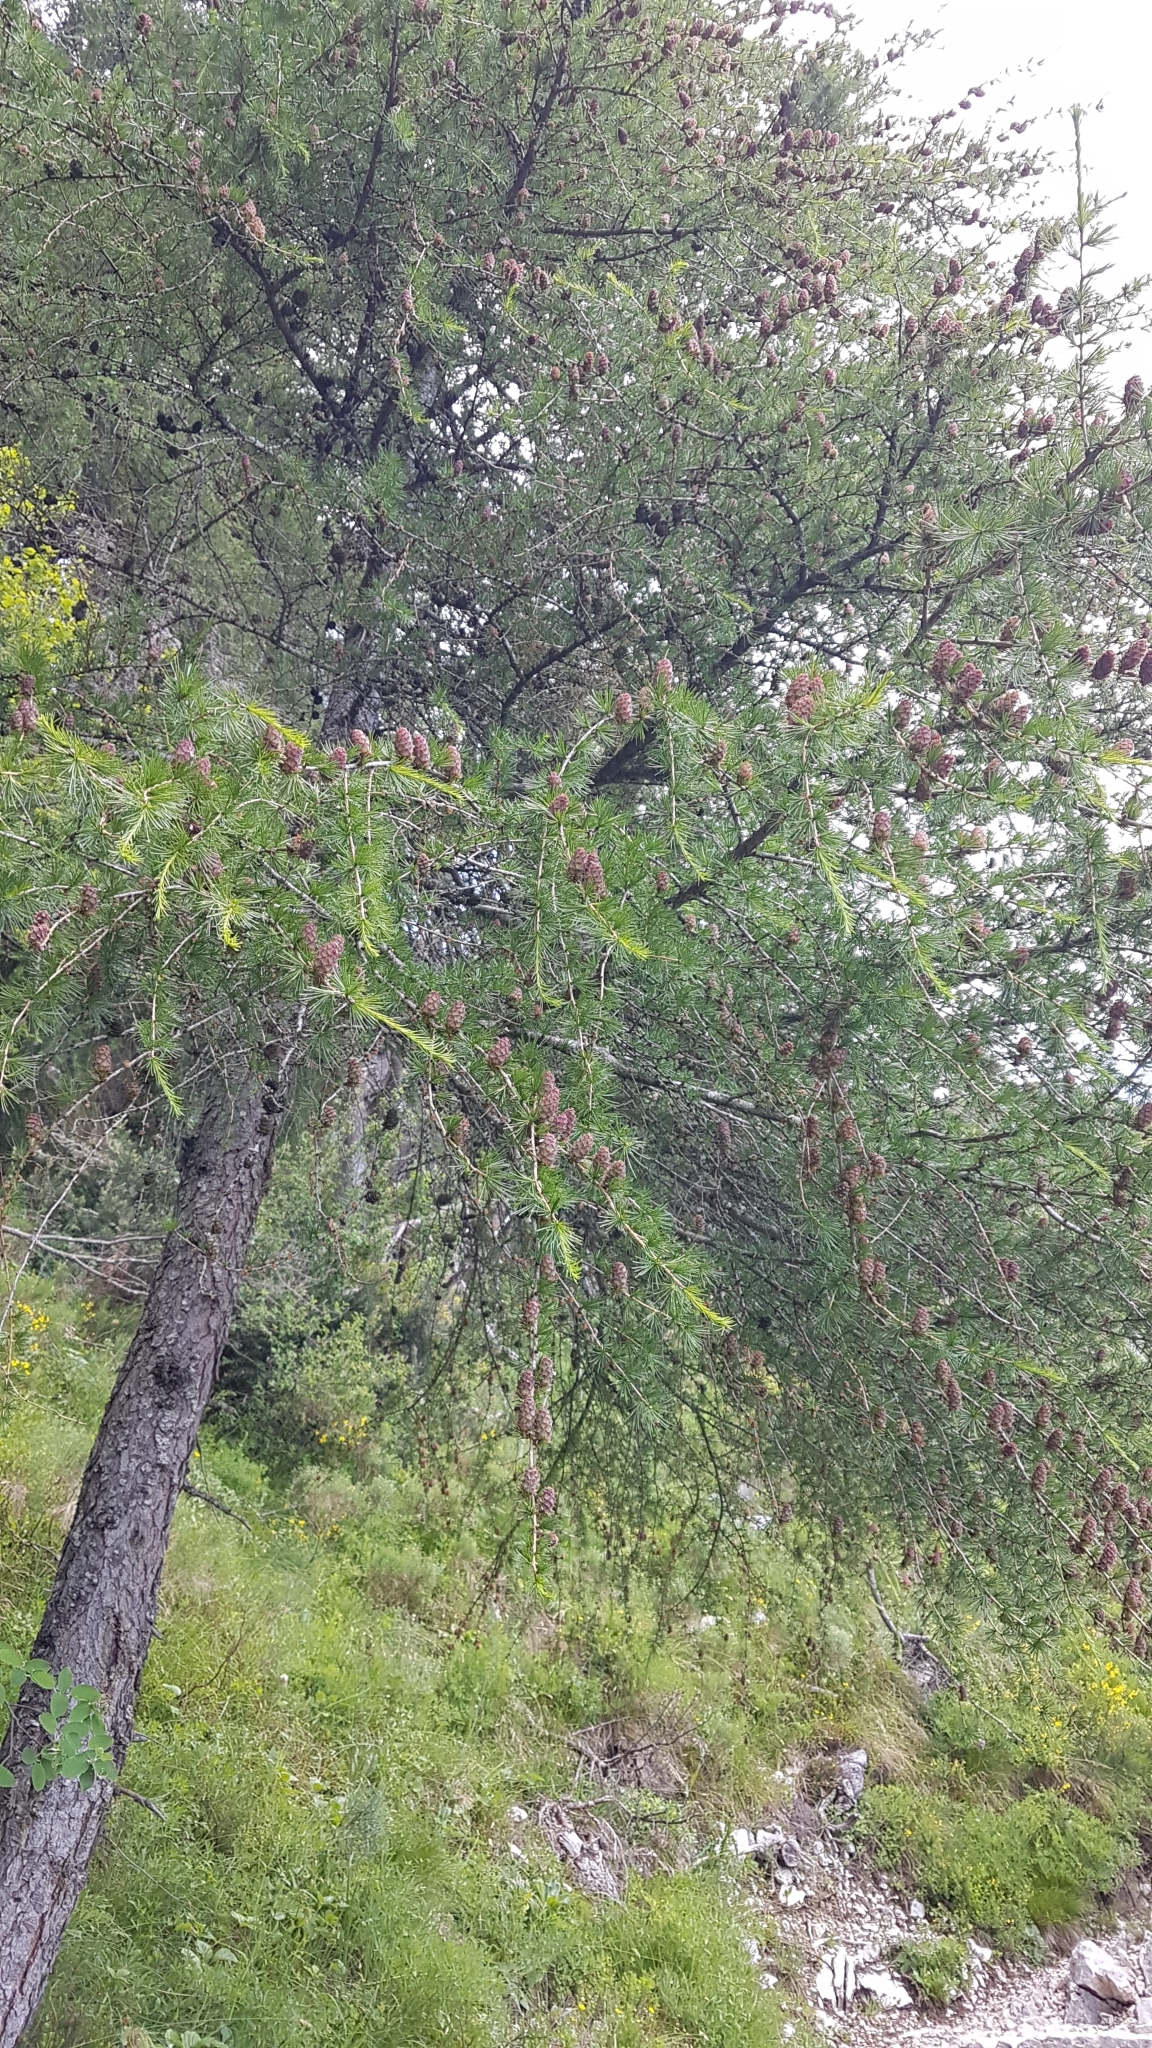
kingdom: Plantae
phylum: Tracheophyta
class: Pinopsida
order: Pinales
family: Pinaceae
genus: Larix
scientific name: Larix decidua
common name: European larch
